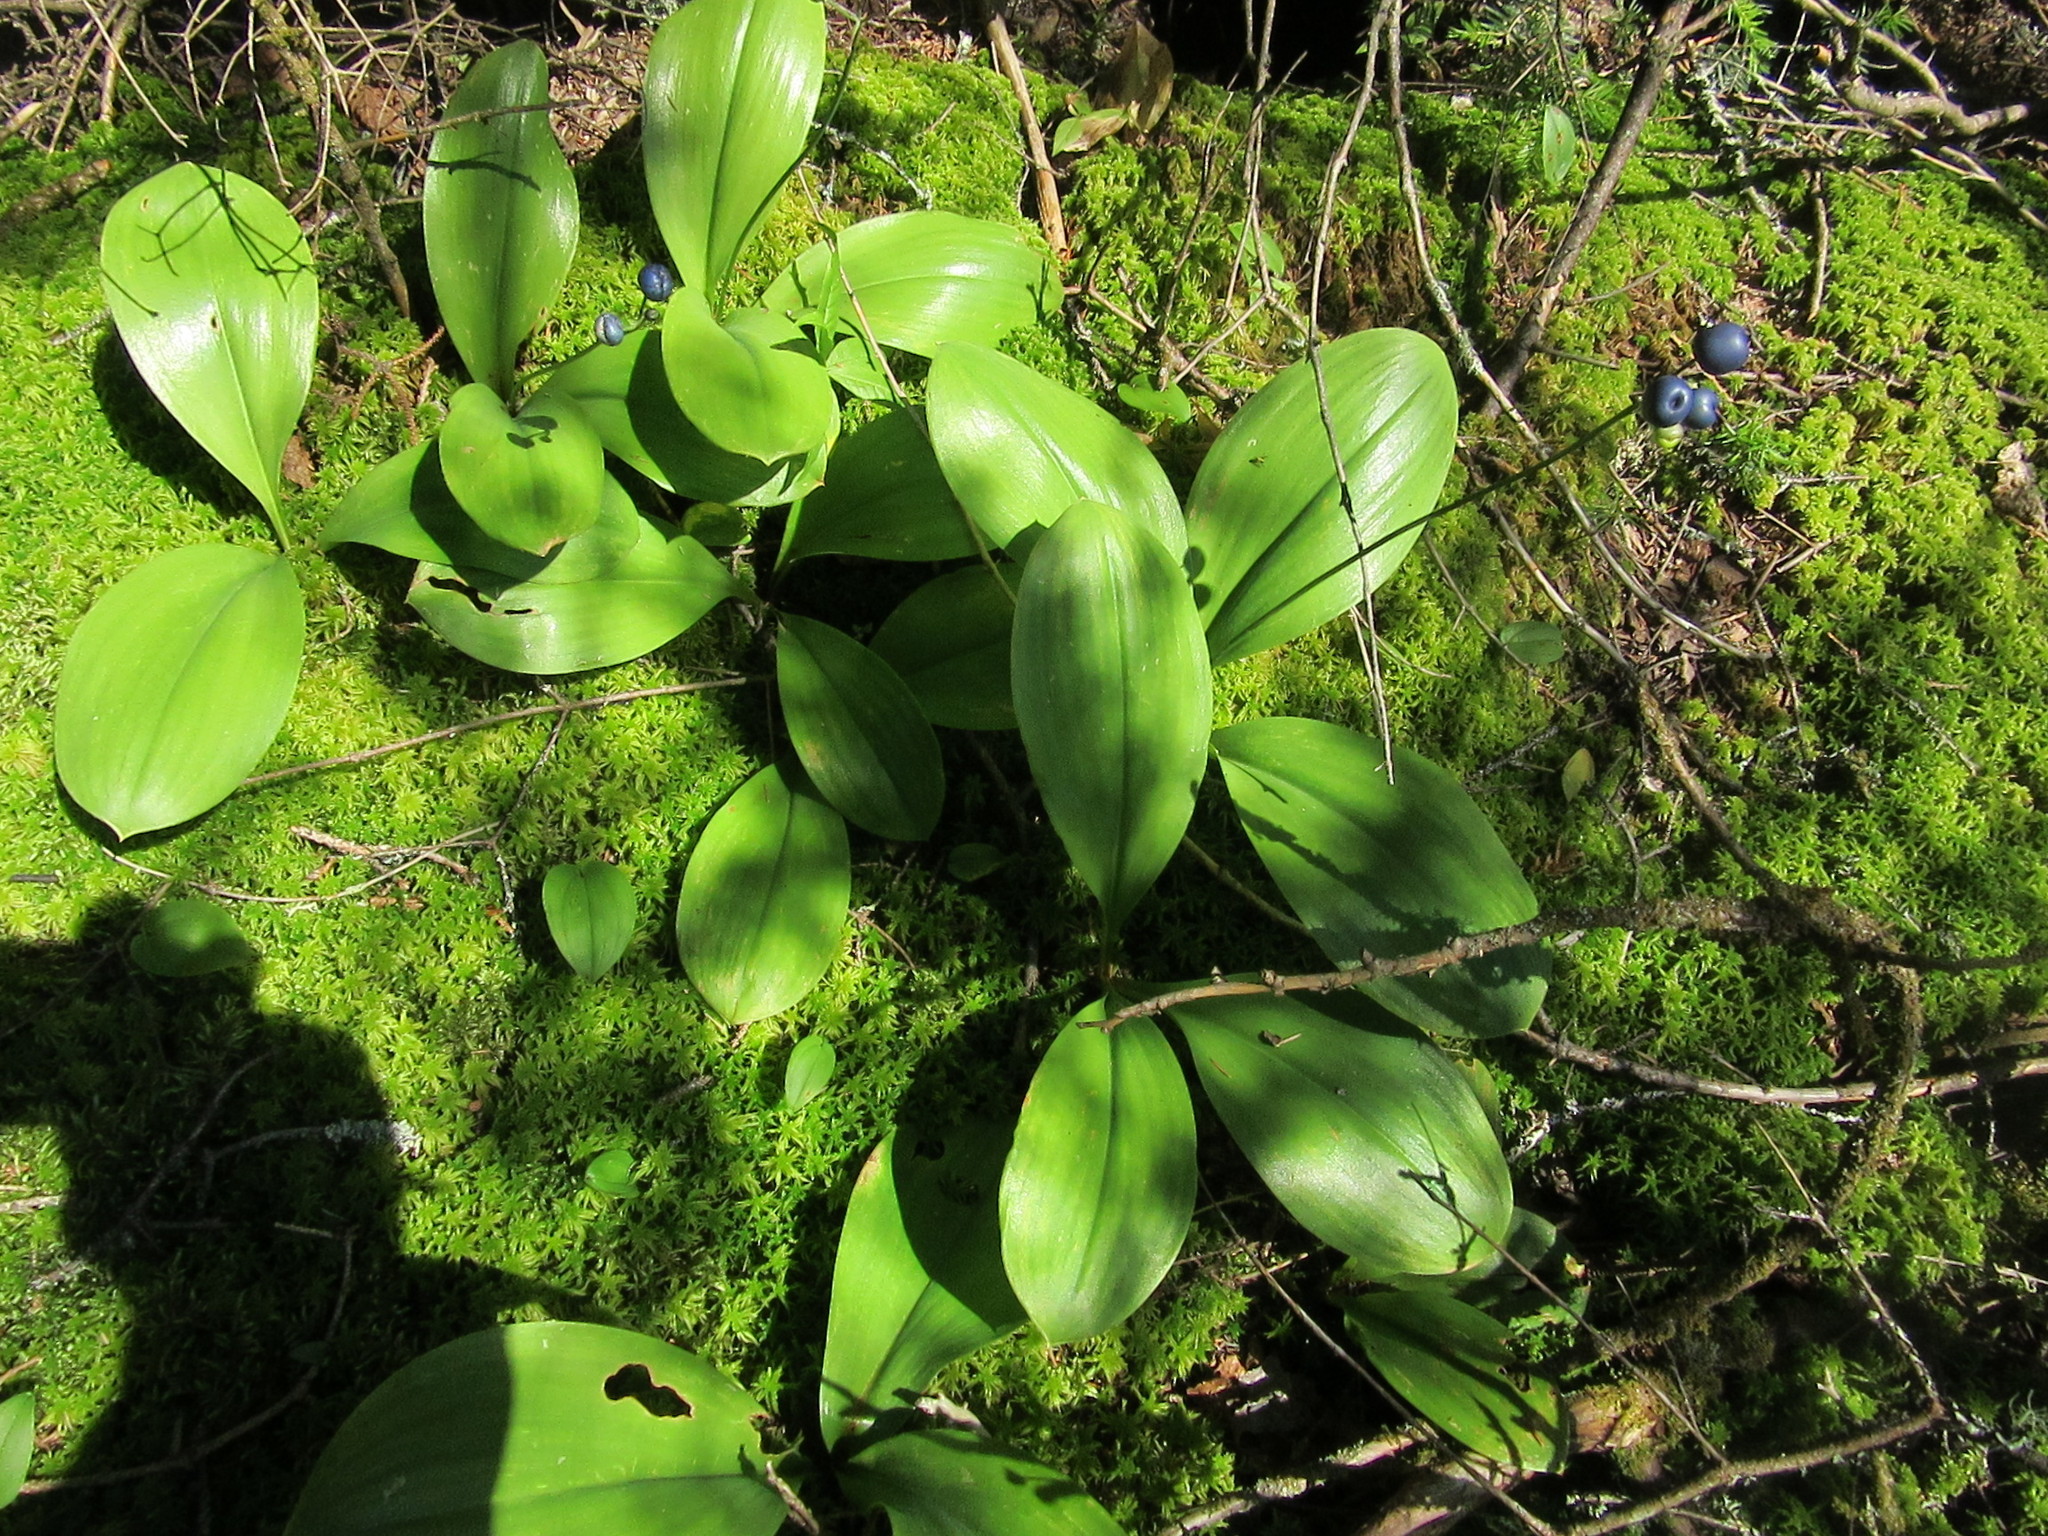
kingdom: Plantae
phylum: Tracheophyta
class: Liliopsida
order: Liliales
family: Liliaceae
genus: Clintonia
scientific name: Clintonia borealis
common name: Yellow clintonia
